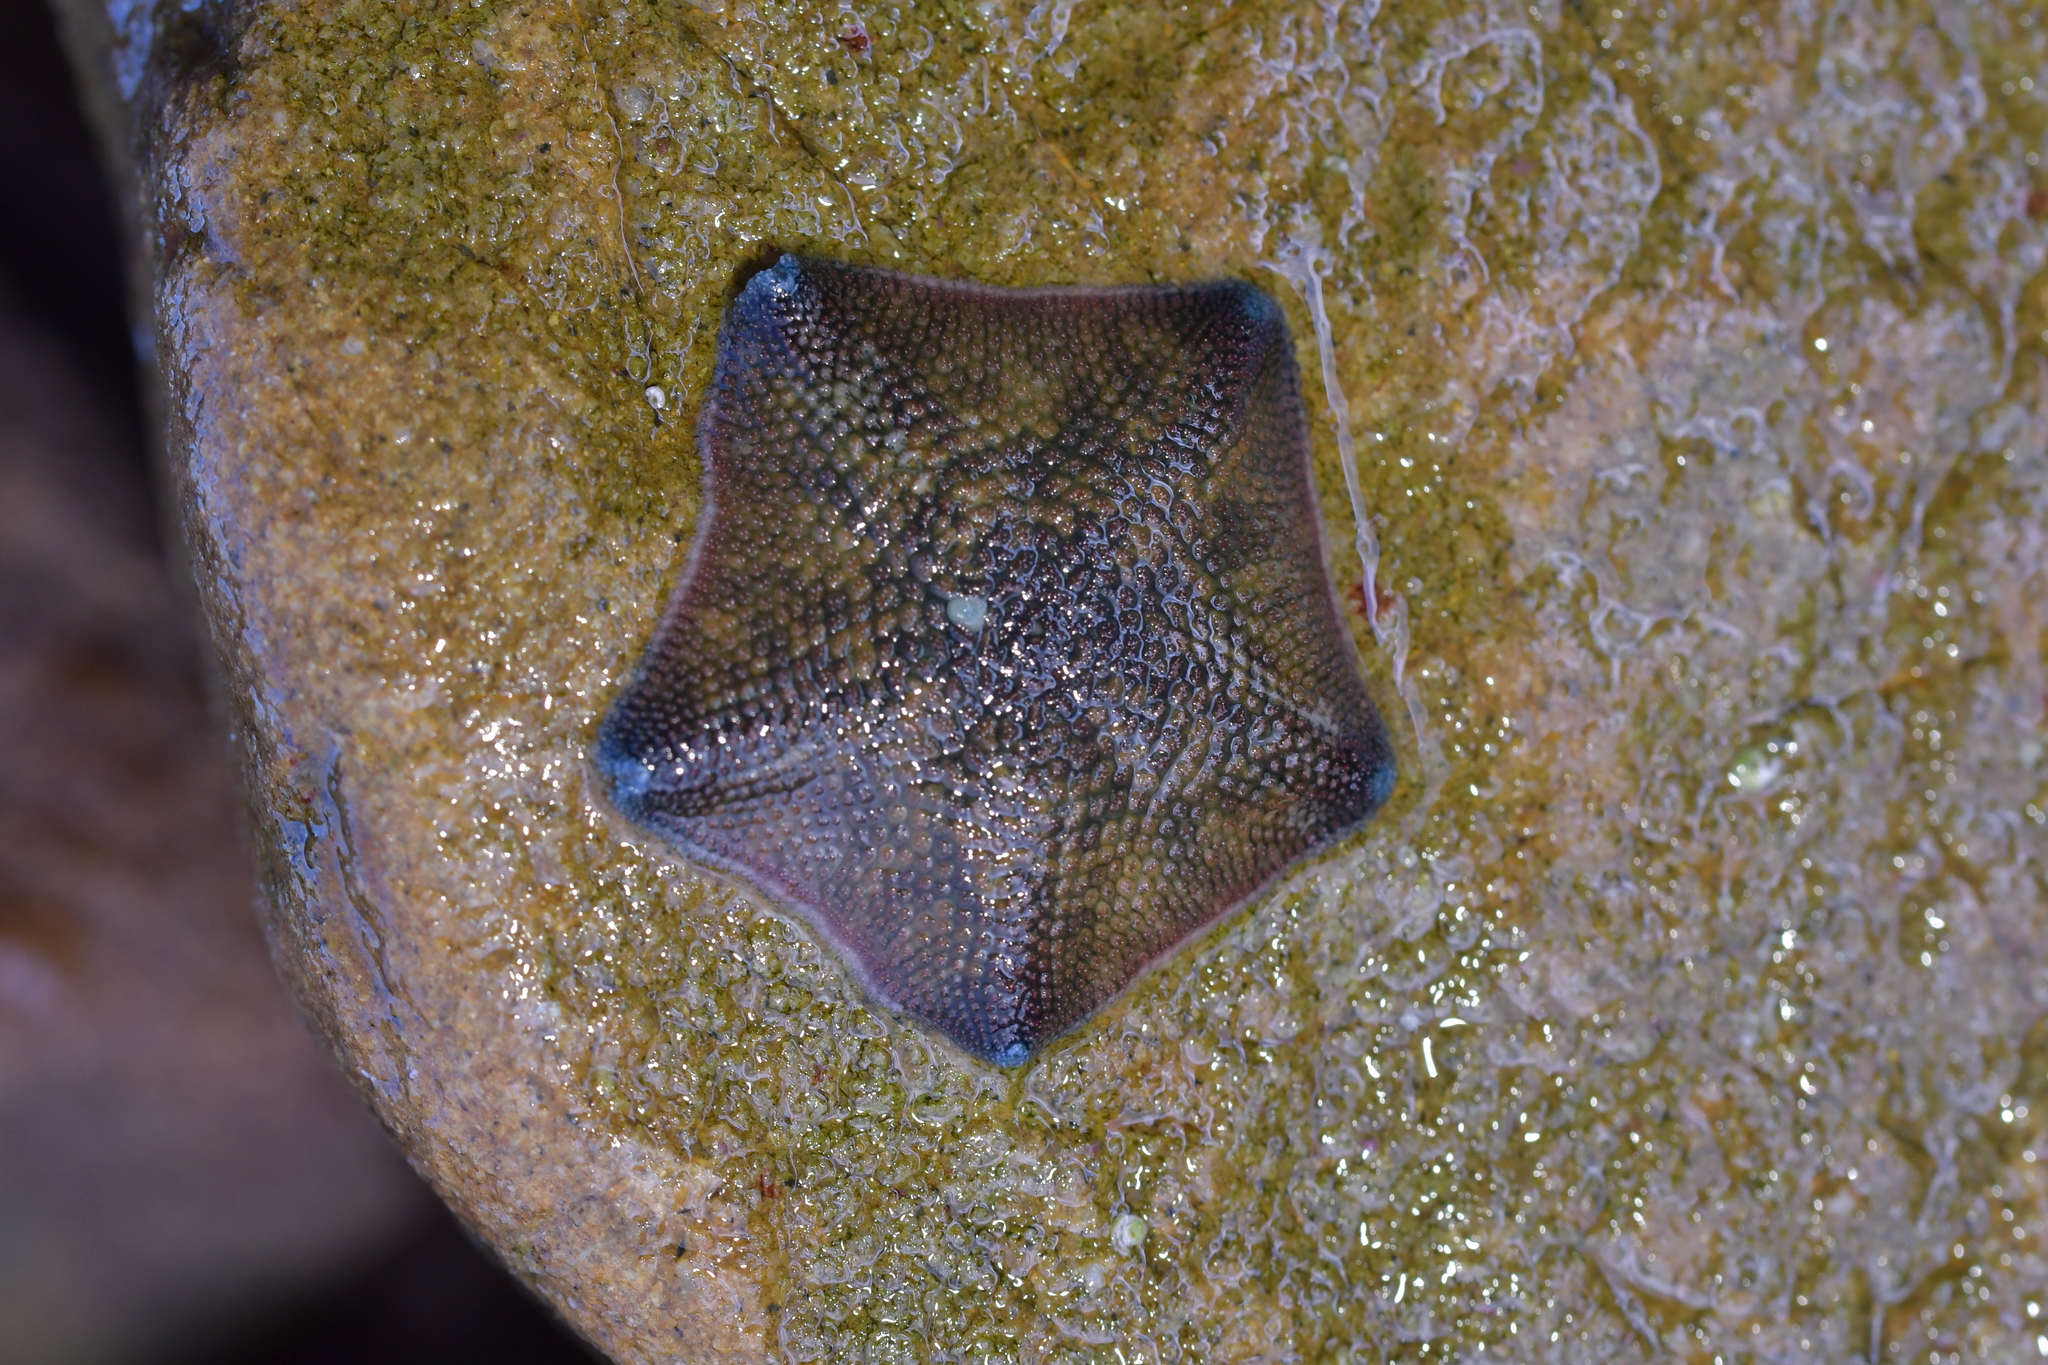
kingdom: Animalia
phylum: Echinodermata
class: Asteroidea
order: Valvatida
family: Asterinidae
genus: Patiriella
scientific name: Patiriella regularis
